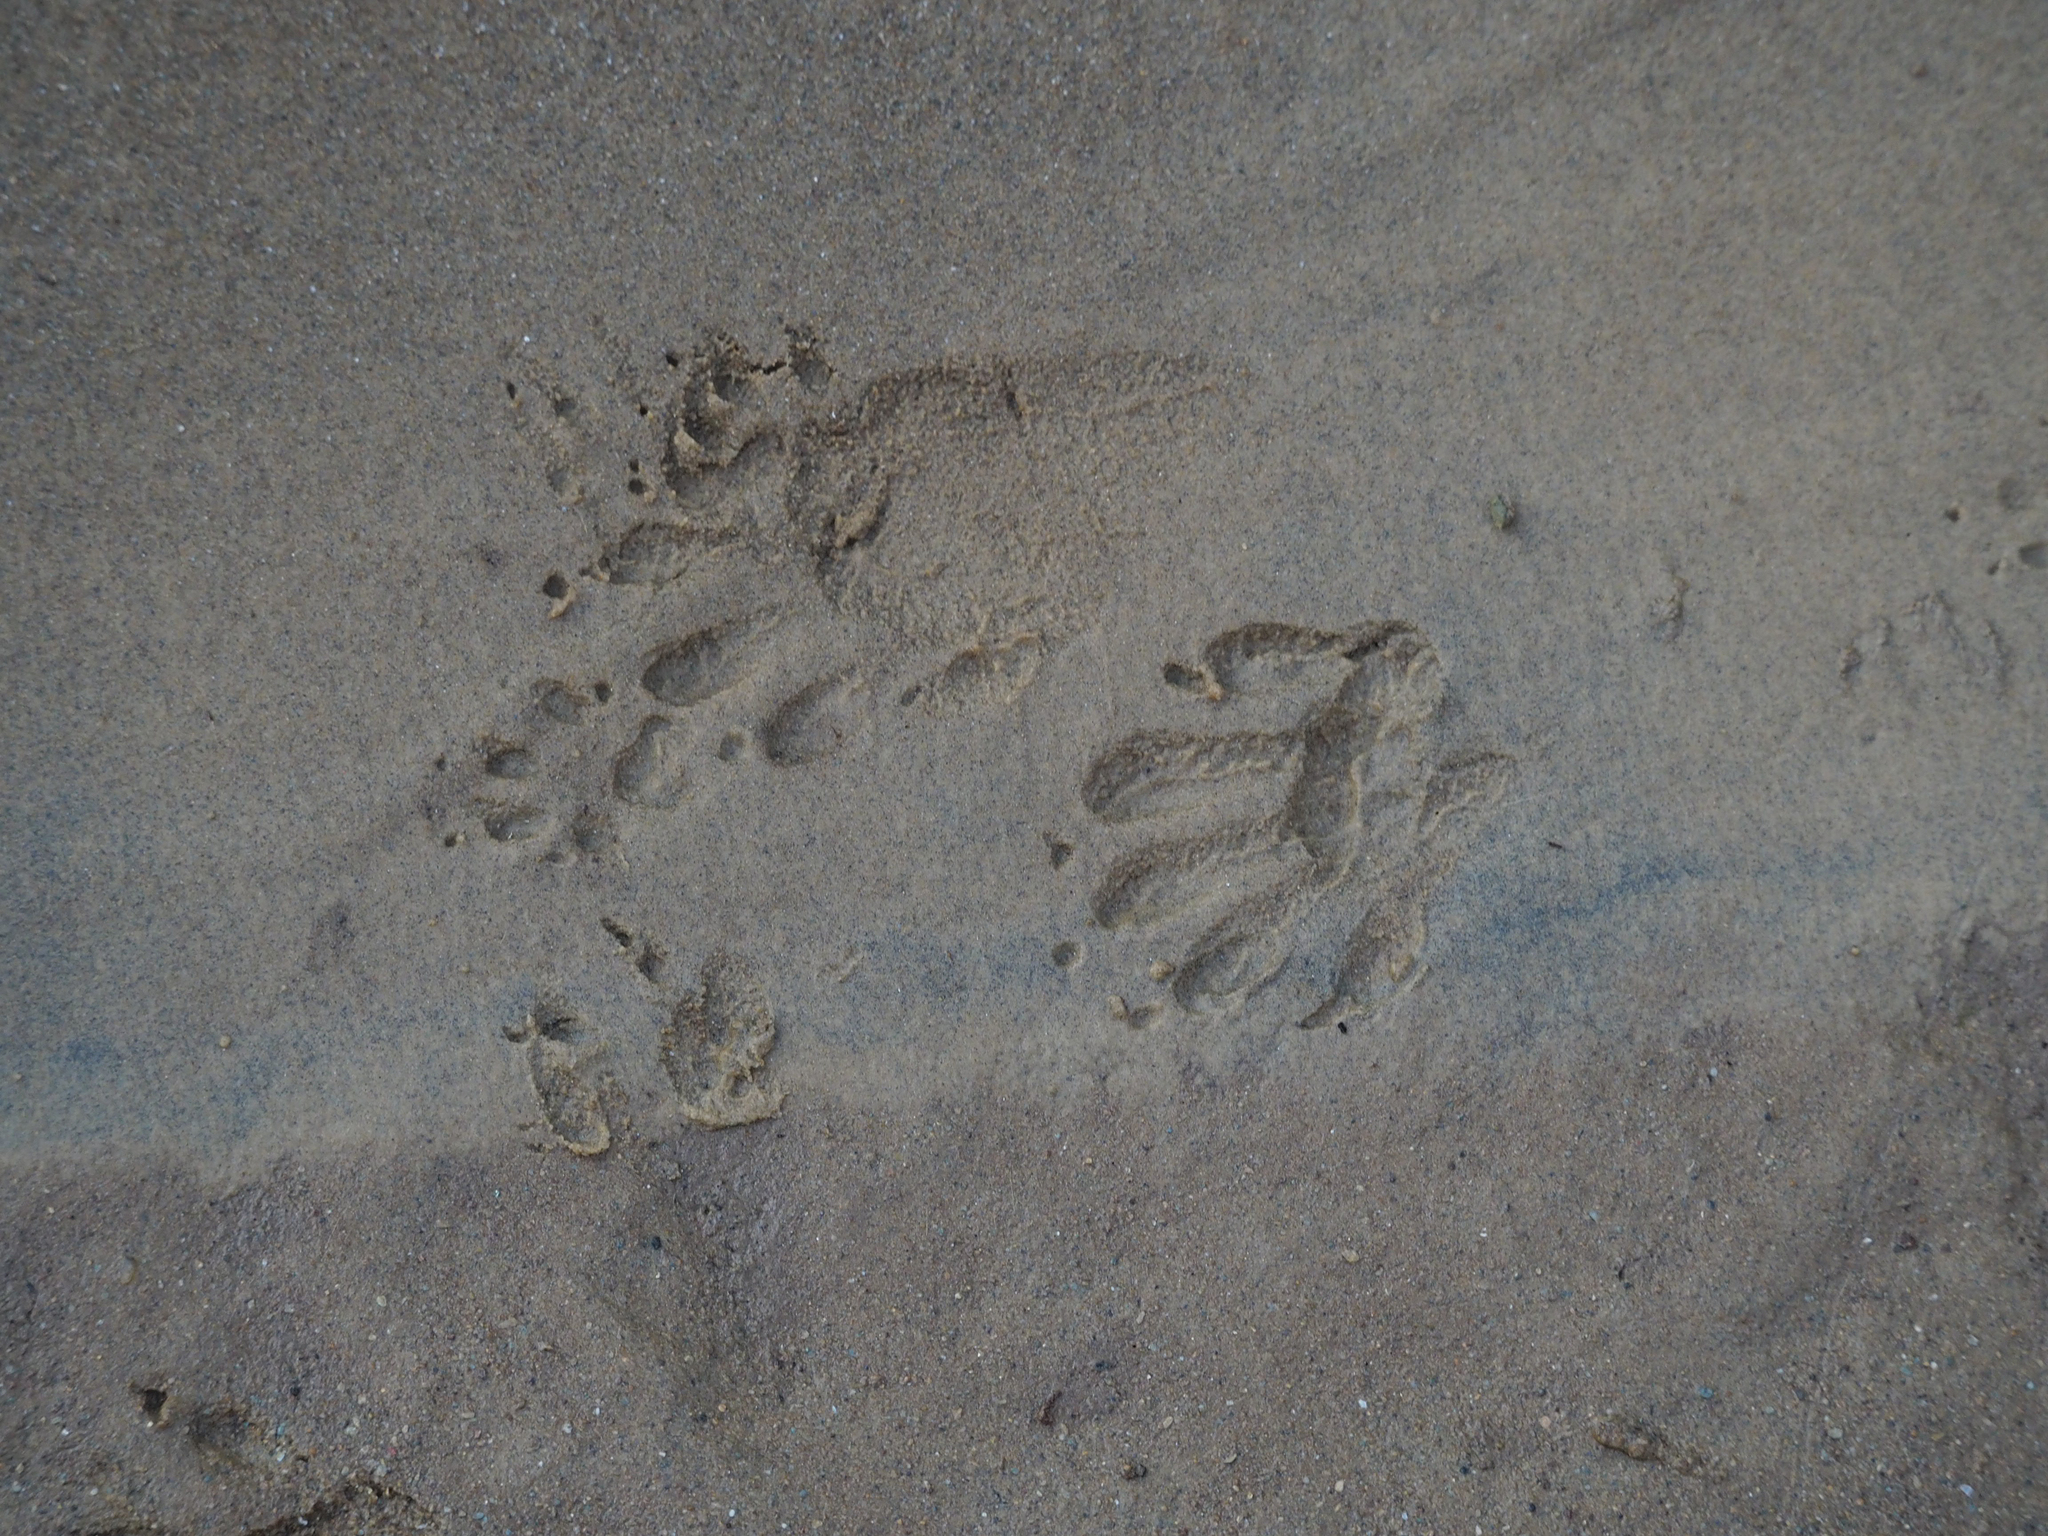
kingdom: Animalia
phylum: Chordata
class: Mammalia
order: Carnivora
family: Procyonidae
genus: Procyon
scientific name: Procyon lotor
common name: Raccoon
